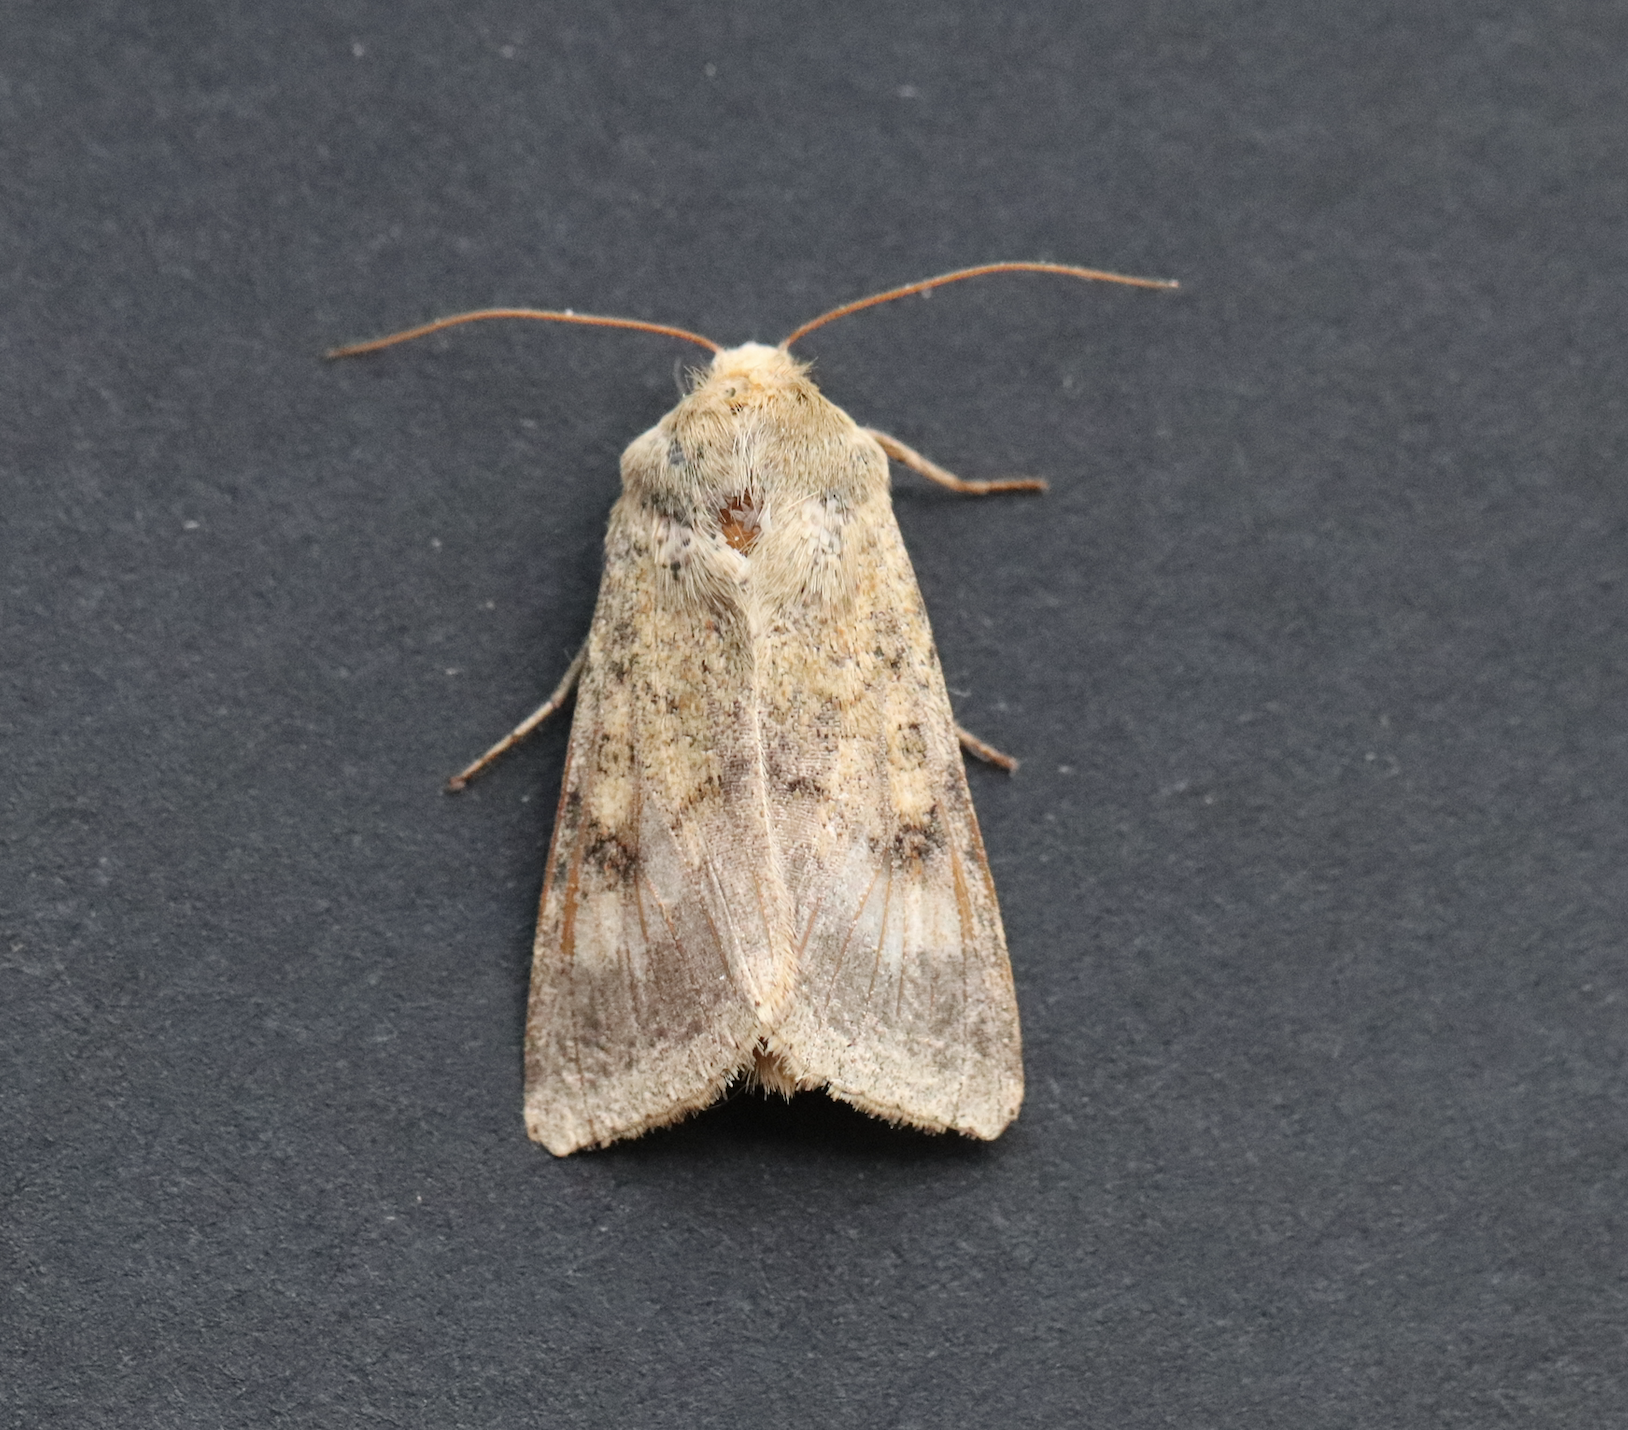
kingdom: Animalia
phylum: Arthropoda
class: Insecta
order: Lepidoptera
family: Noctuidae
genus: Helicoverpa
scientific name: Helicoverpa armigera
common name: Cotton bollworm
